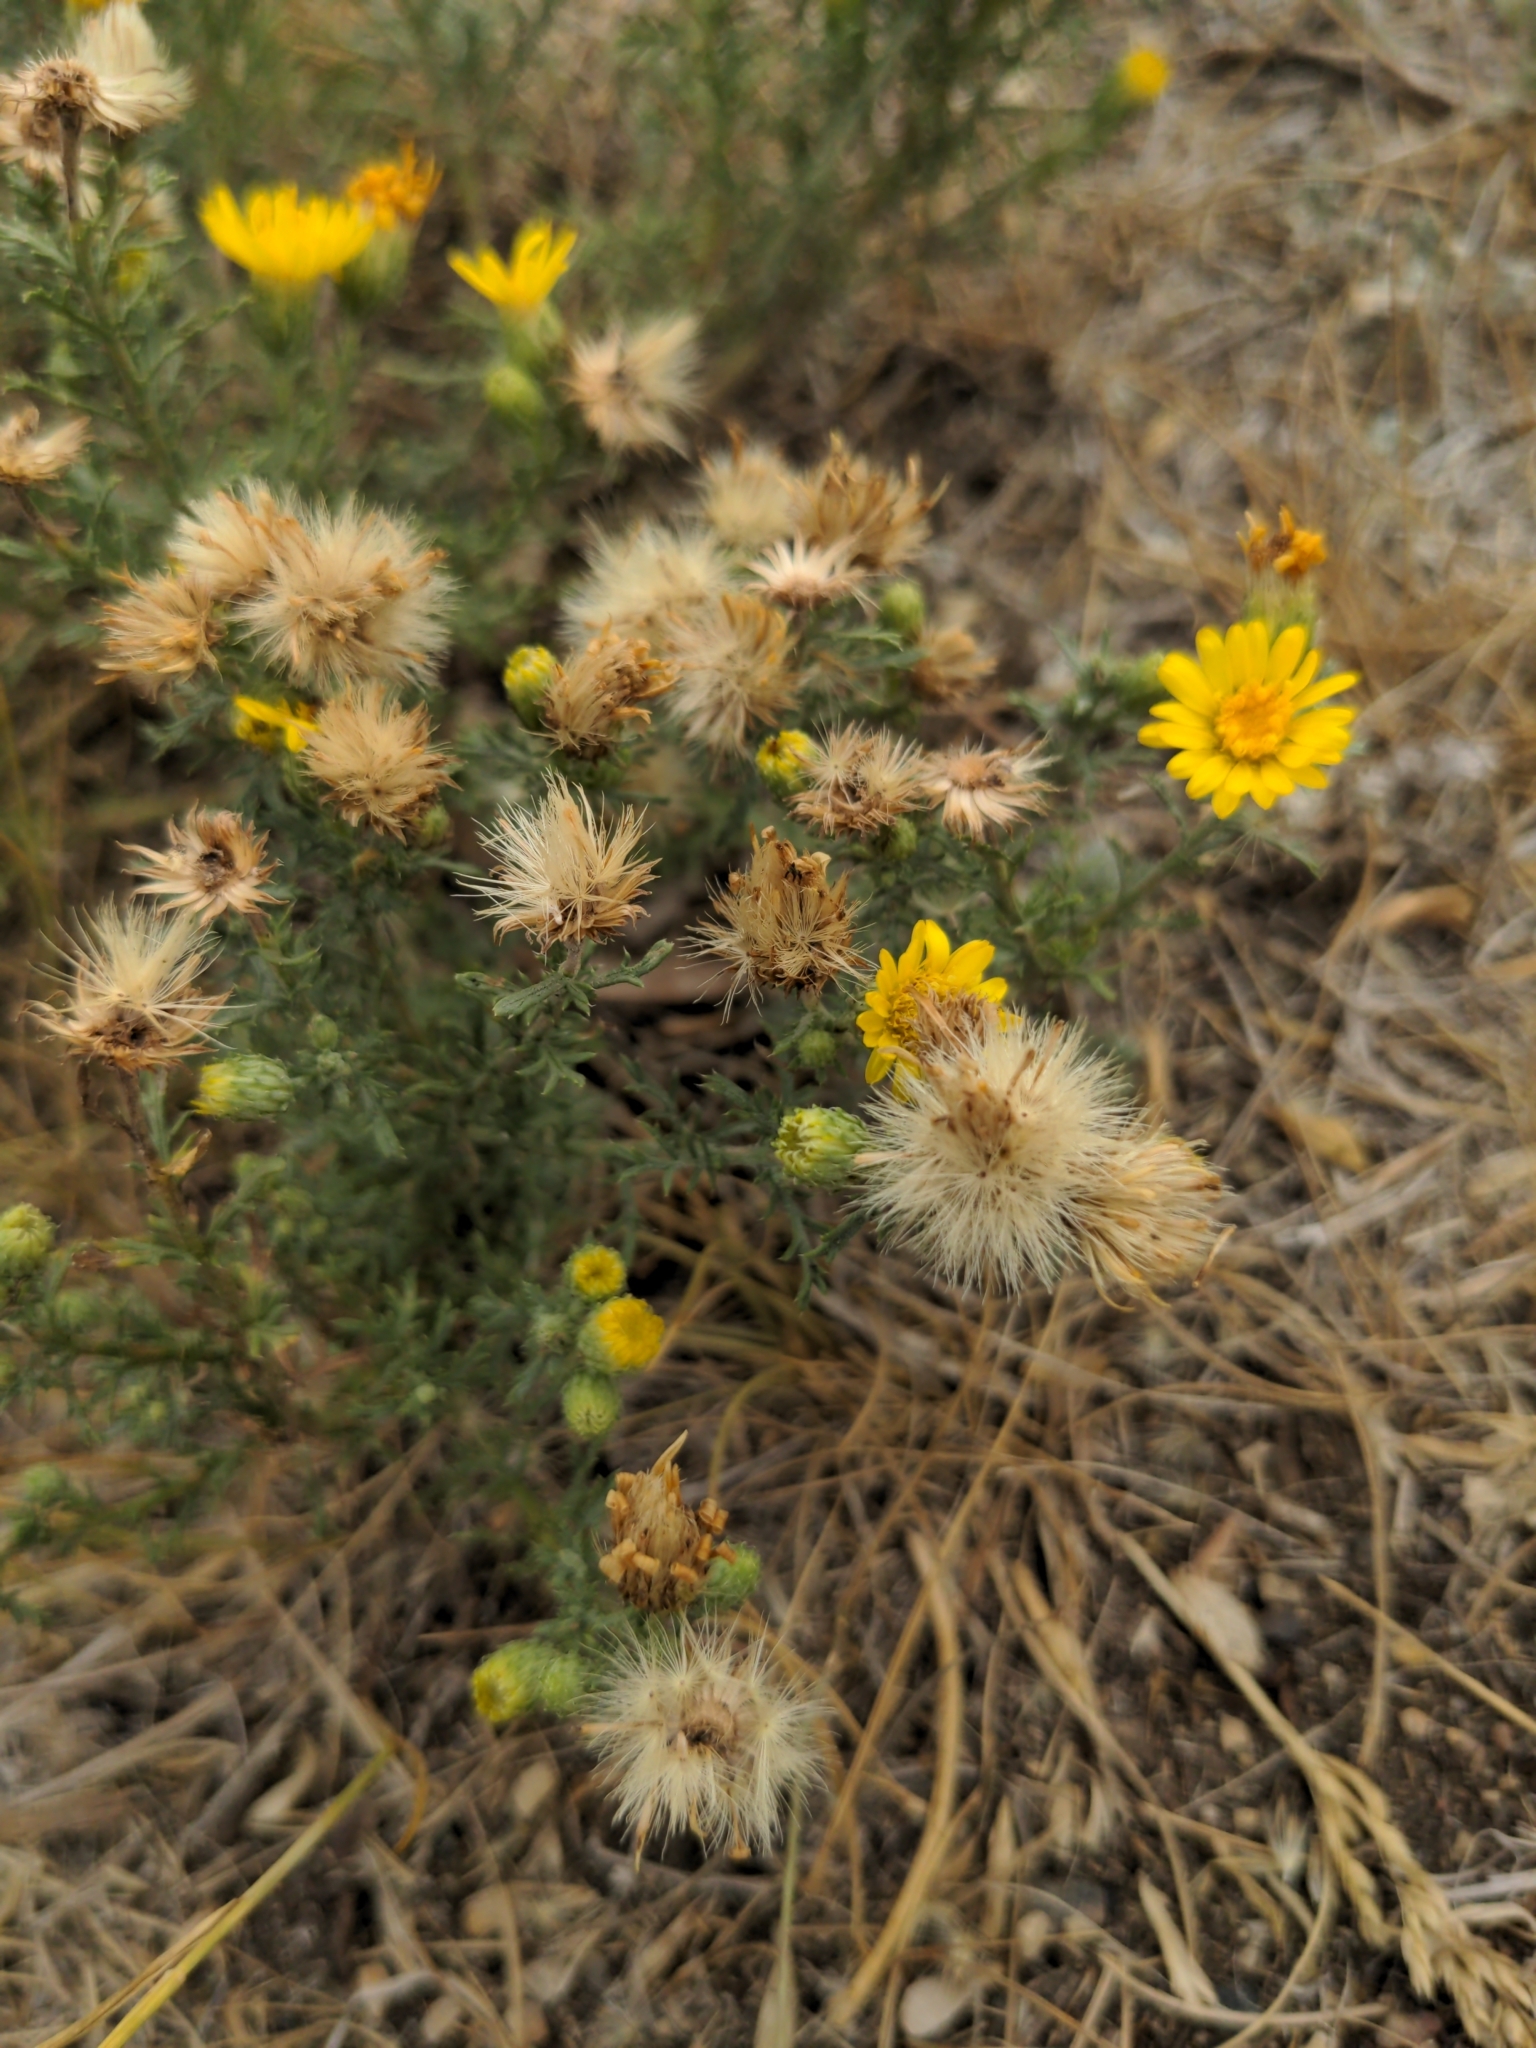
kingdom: Plantae
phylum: Tracheophyta
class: Magnoliopsida
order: Asterales
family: Asteraceae
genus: Xanthisma
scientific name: Xanthisma spinulosum
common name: Spiny goldenweed
